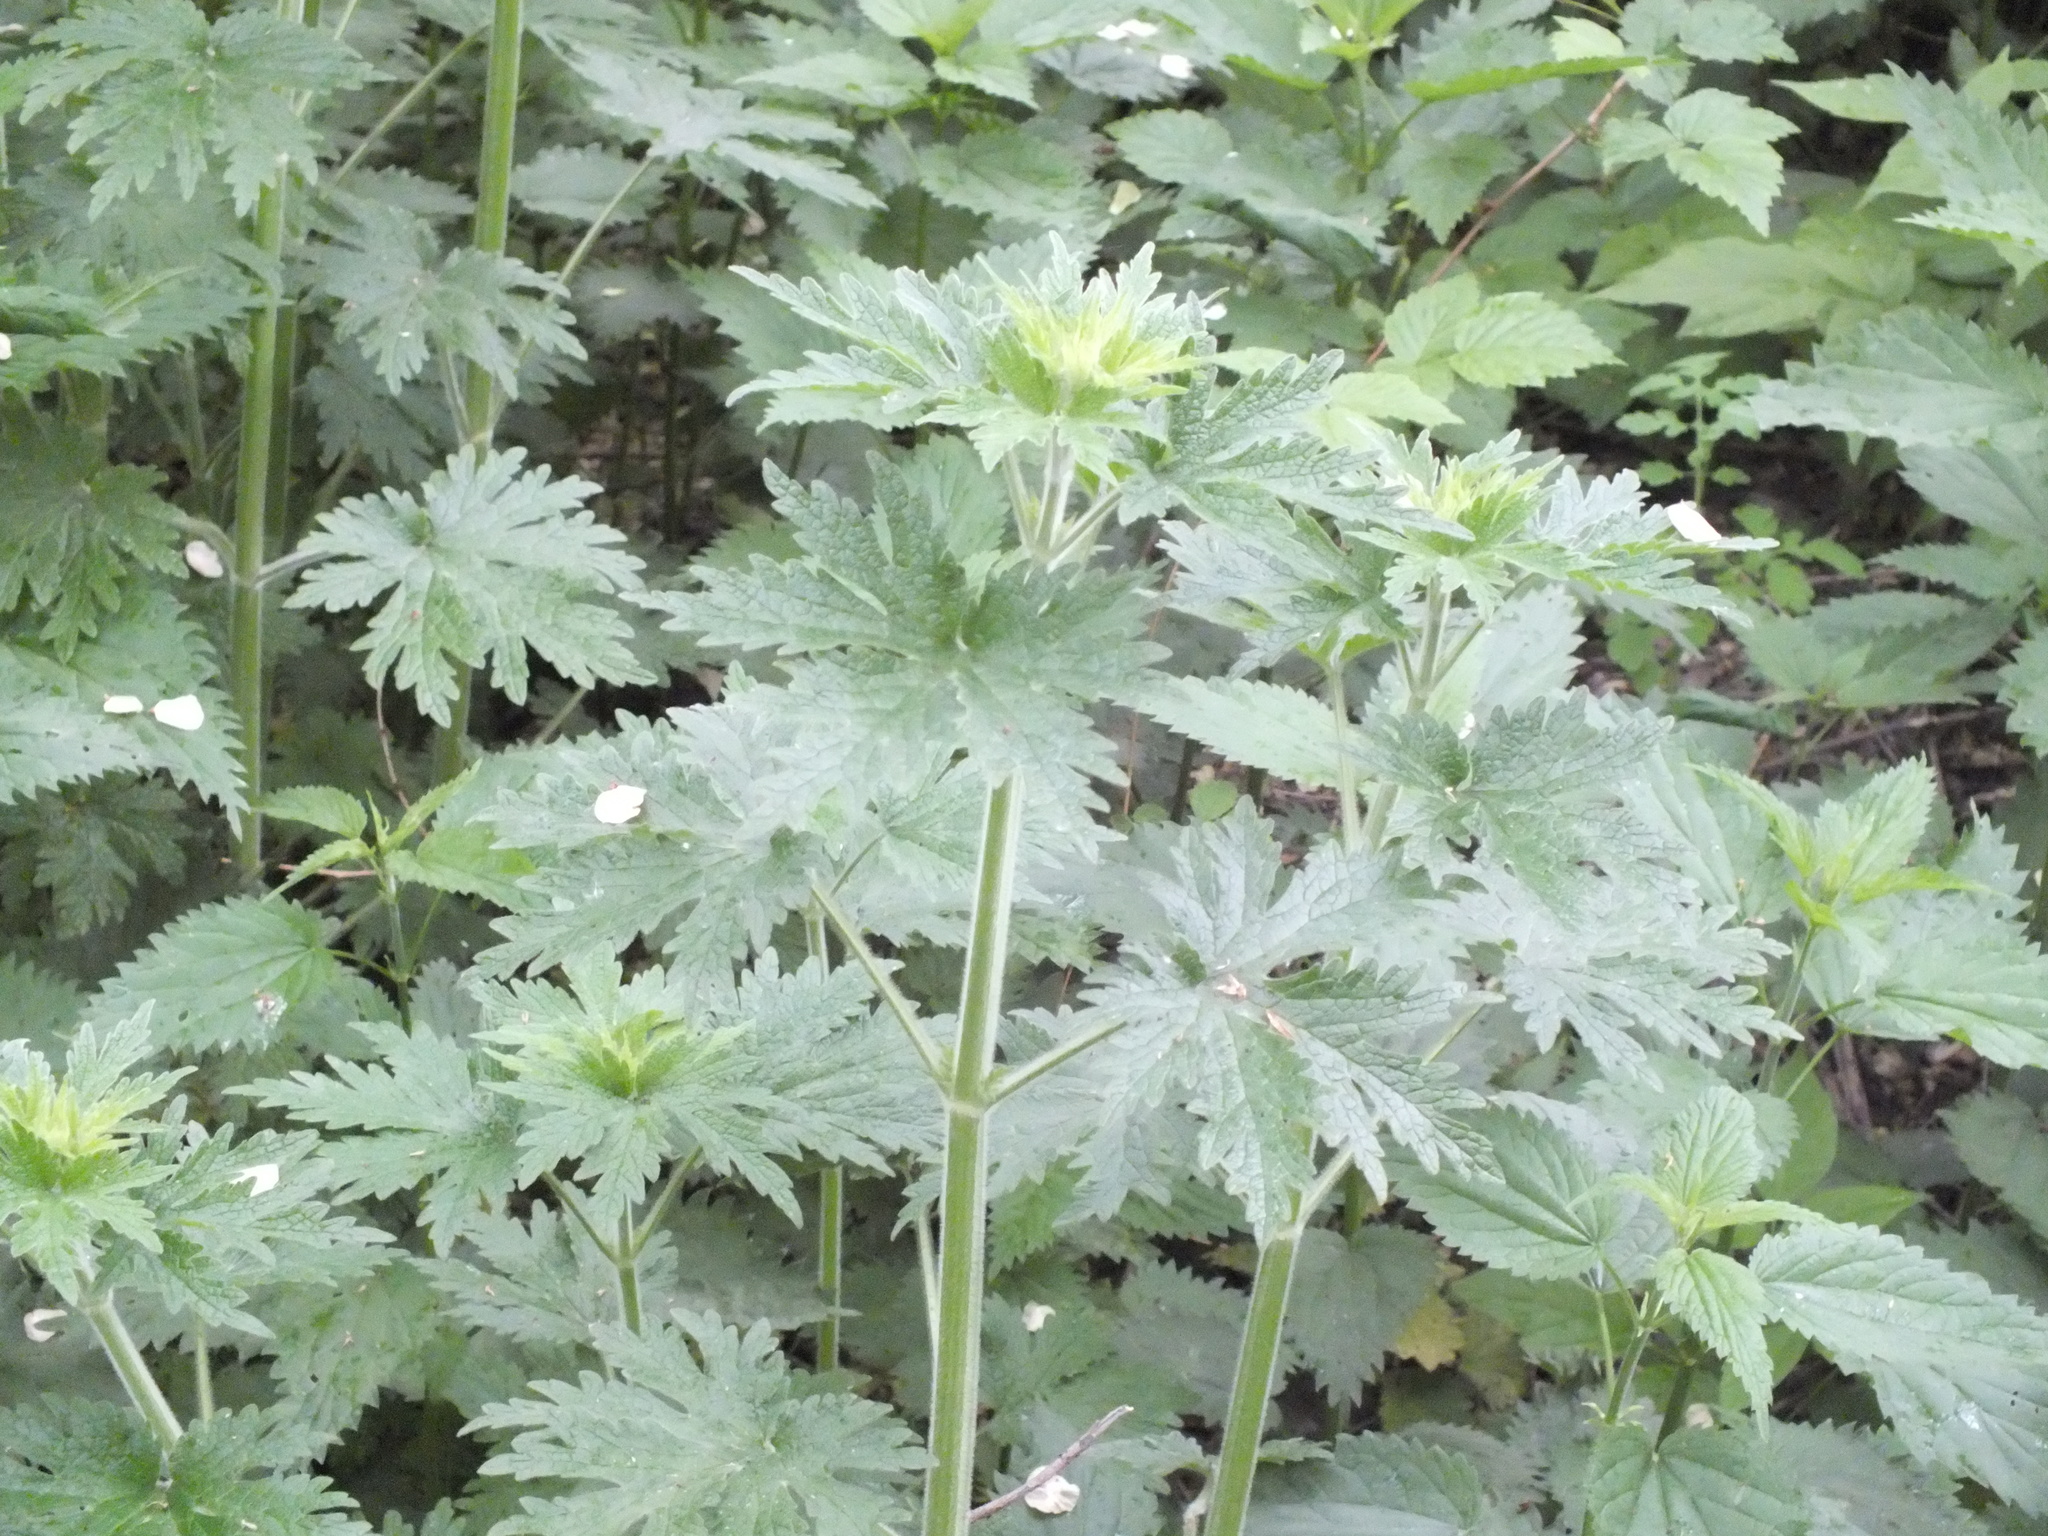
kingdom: Plantae
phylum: Tracheophyta
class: Magnoliopsida
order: Lamiales
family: Lamiaceae
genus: Leonurus
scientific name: Leonurus quinquelobatus
